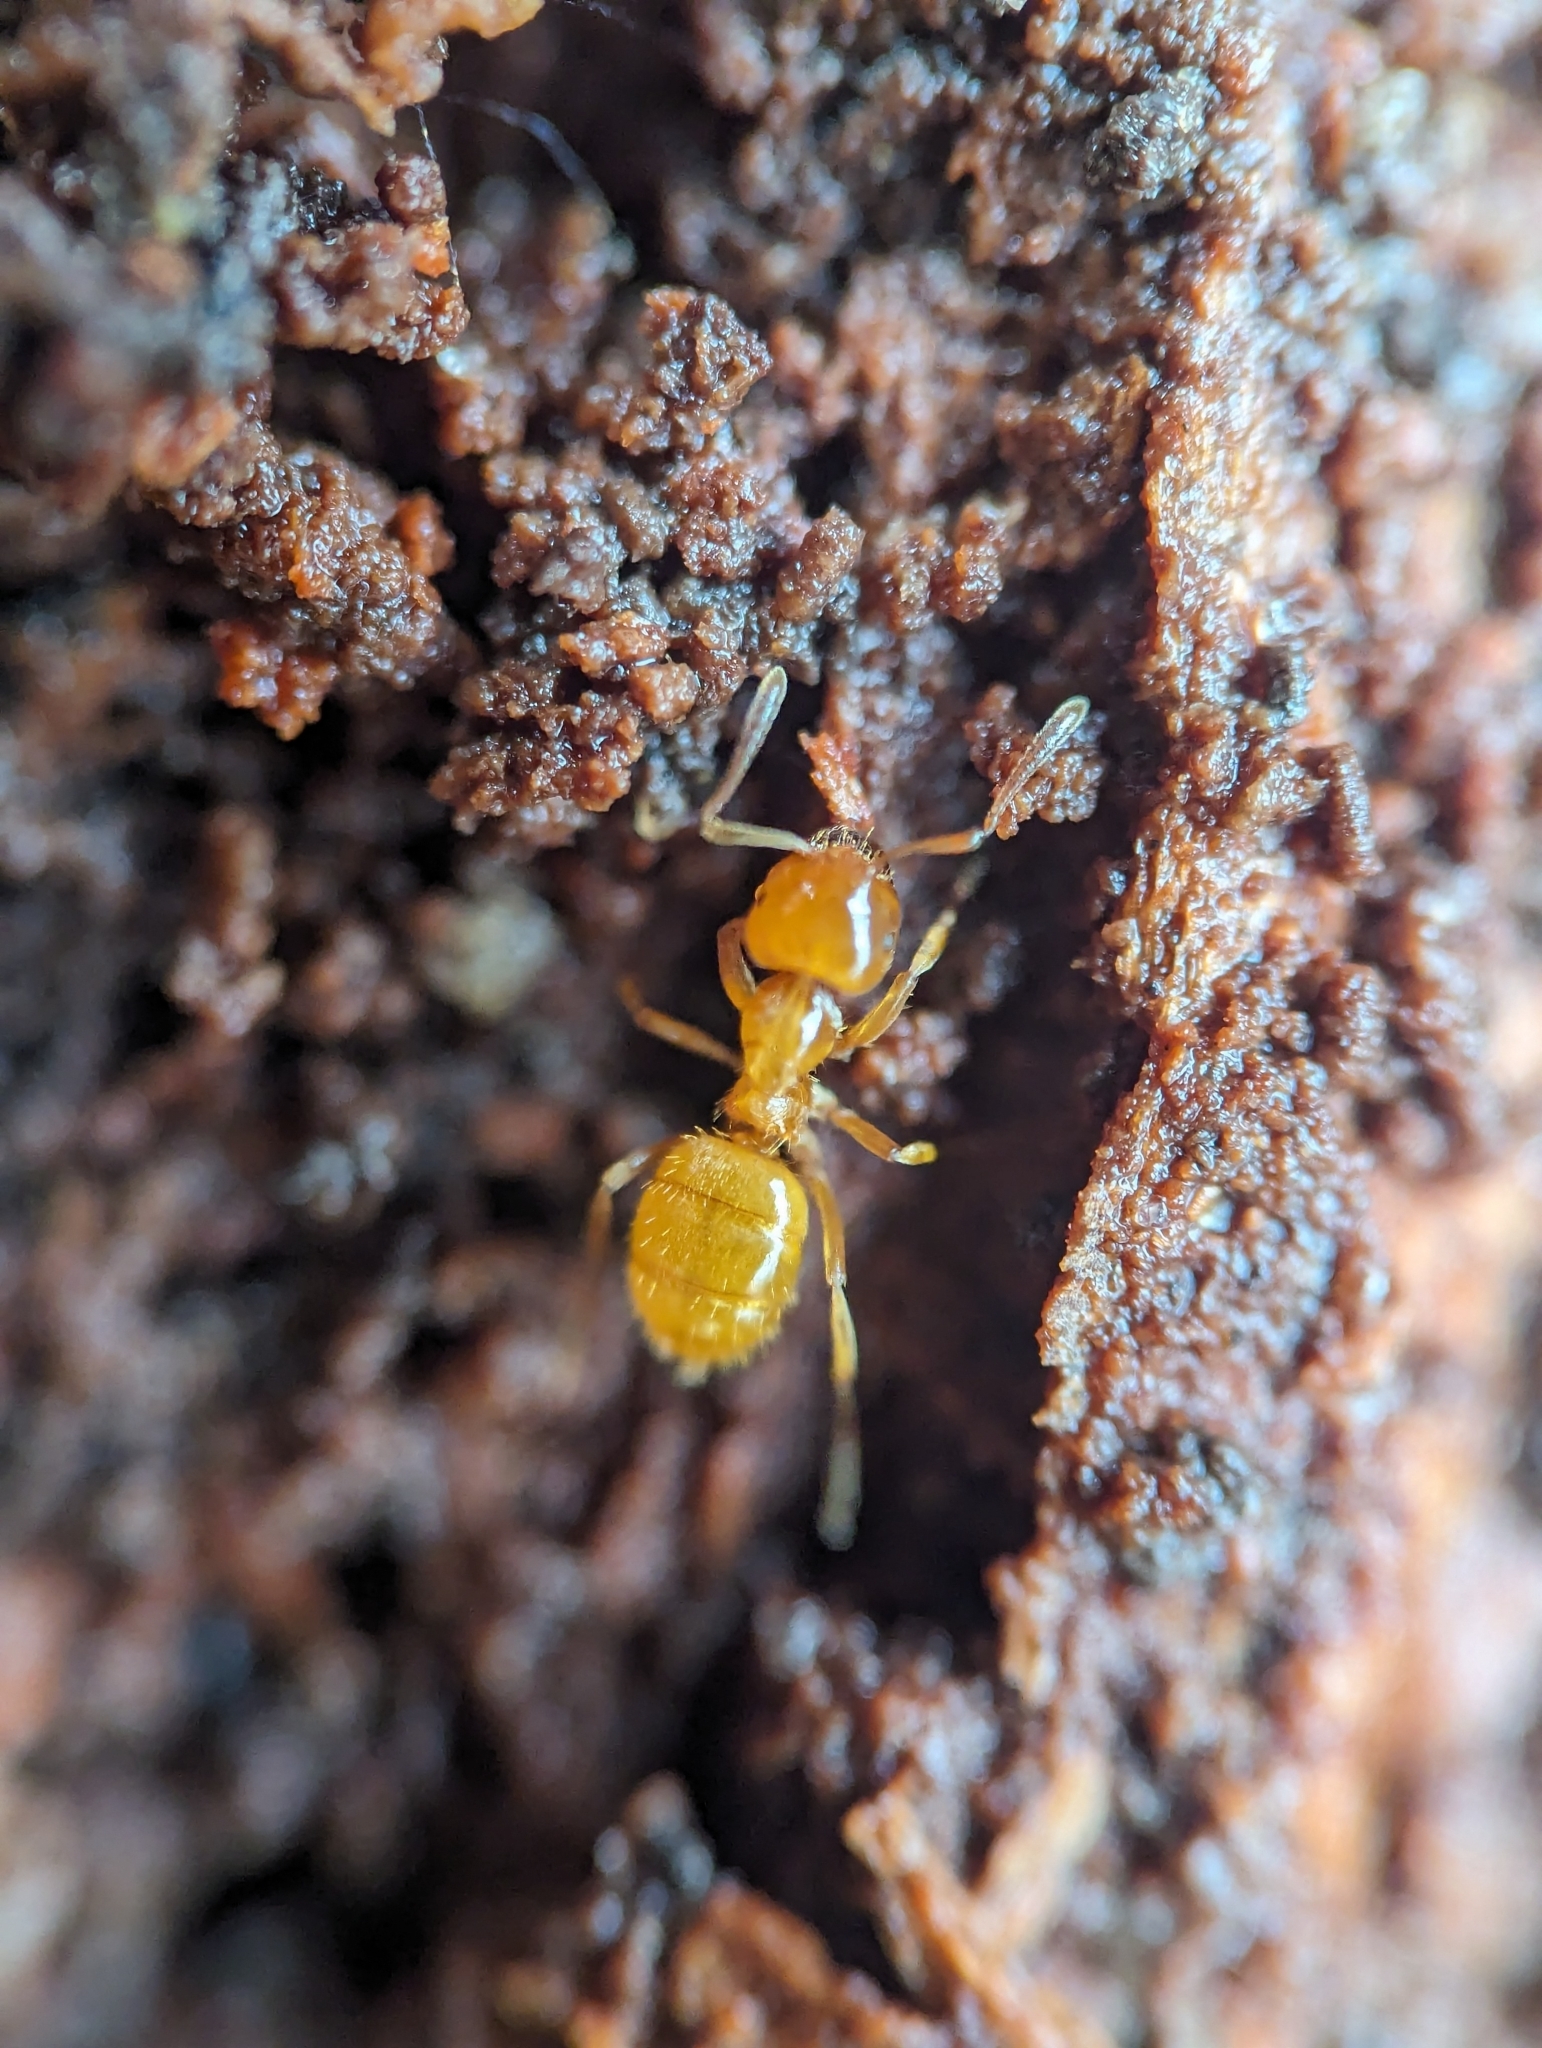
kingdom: Animalia
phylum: Arthropoda
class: Insecta
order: Hymenoptera
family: Formicidae
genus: Lasius
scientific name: Lasius claviger
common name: Common citronella ant
